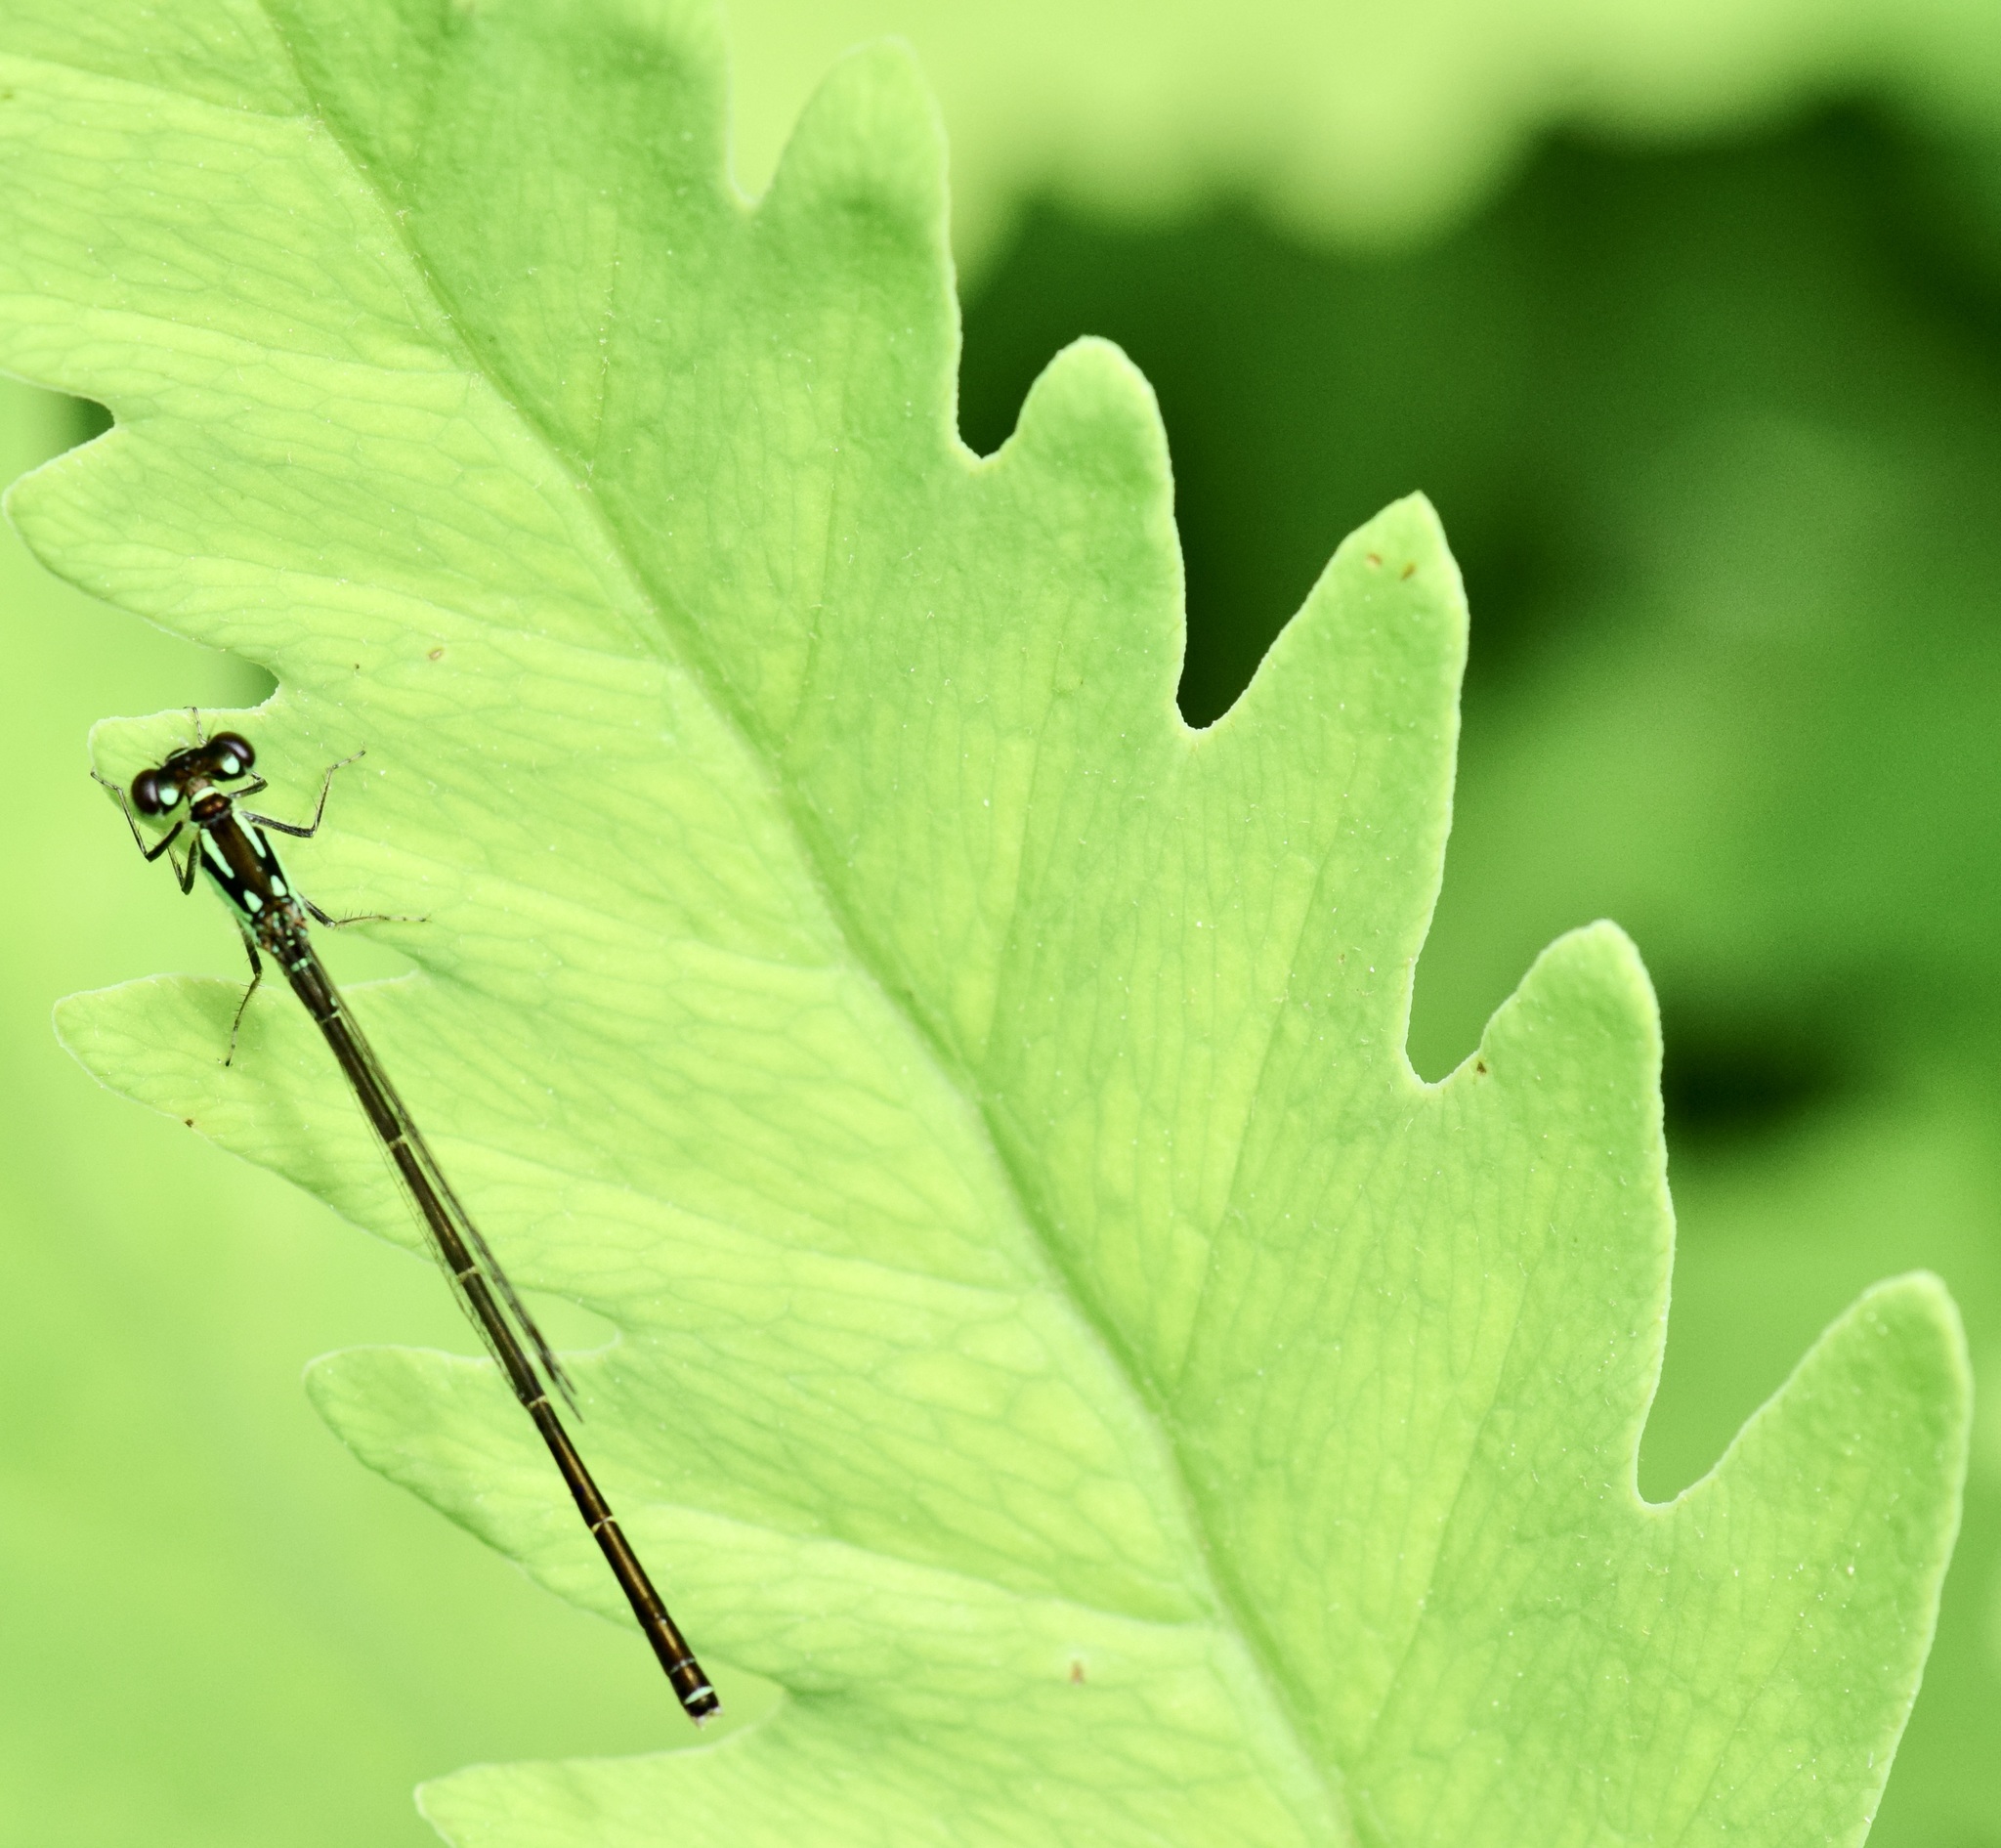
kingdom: Animalia
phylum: Arthropoda
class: Insecta
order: Odonata
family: Coenagrionidae
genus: Ischnura
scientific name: Ischnura posita
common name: Fragile forktail
